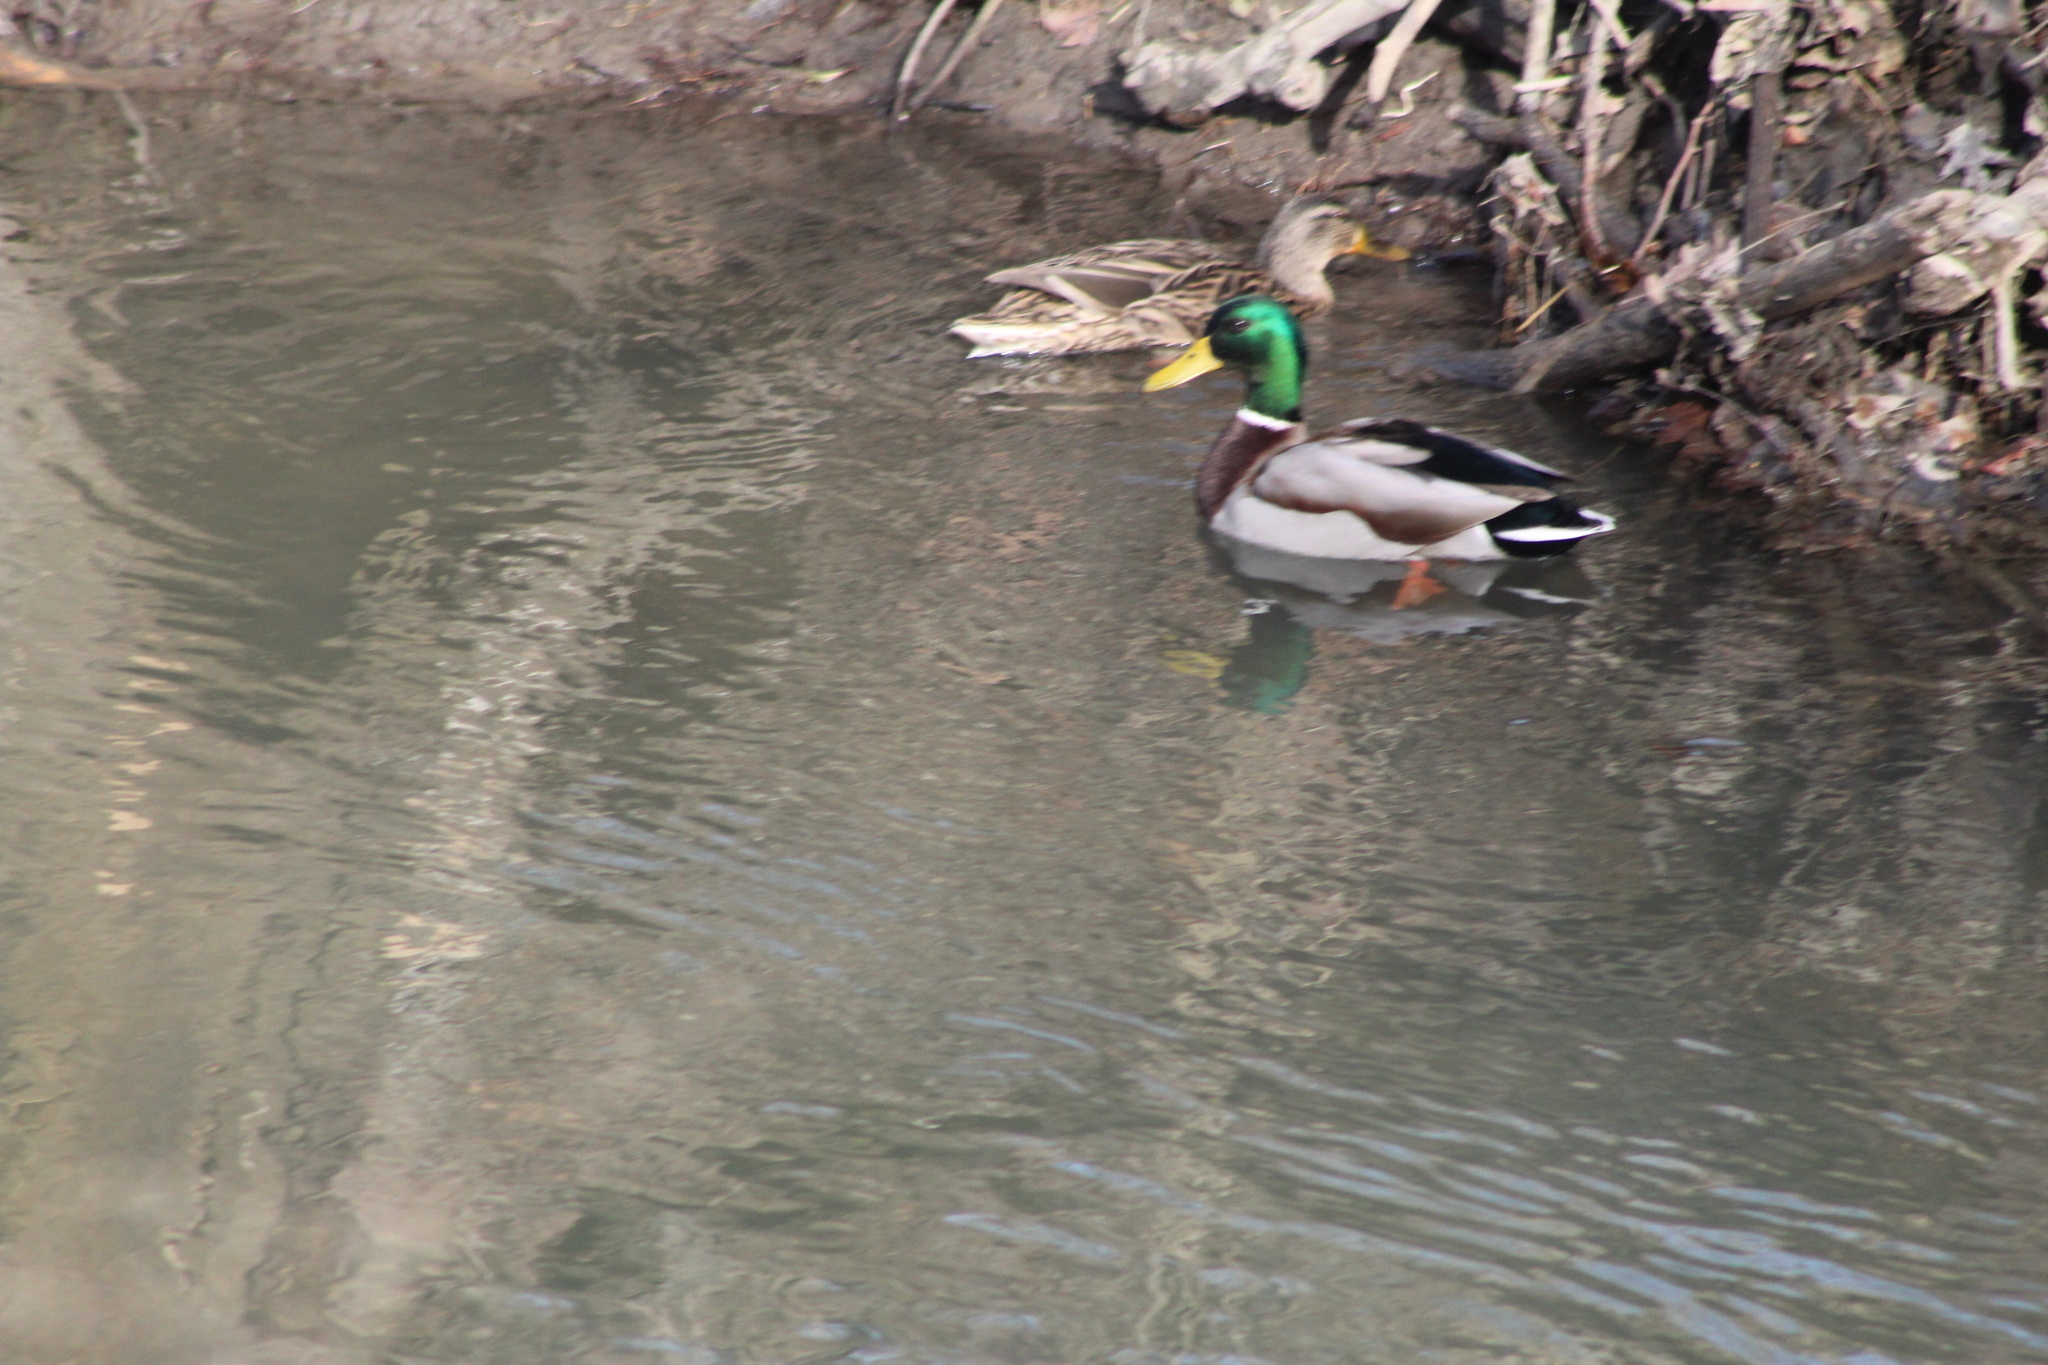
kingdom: Animalia
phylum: Chordata
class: Aves
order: Anseriformes
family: Anatidae
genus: Anas
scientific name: Anas platyrhynchos
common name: Mallard
